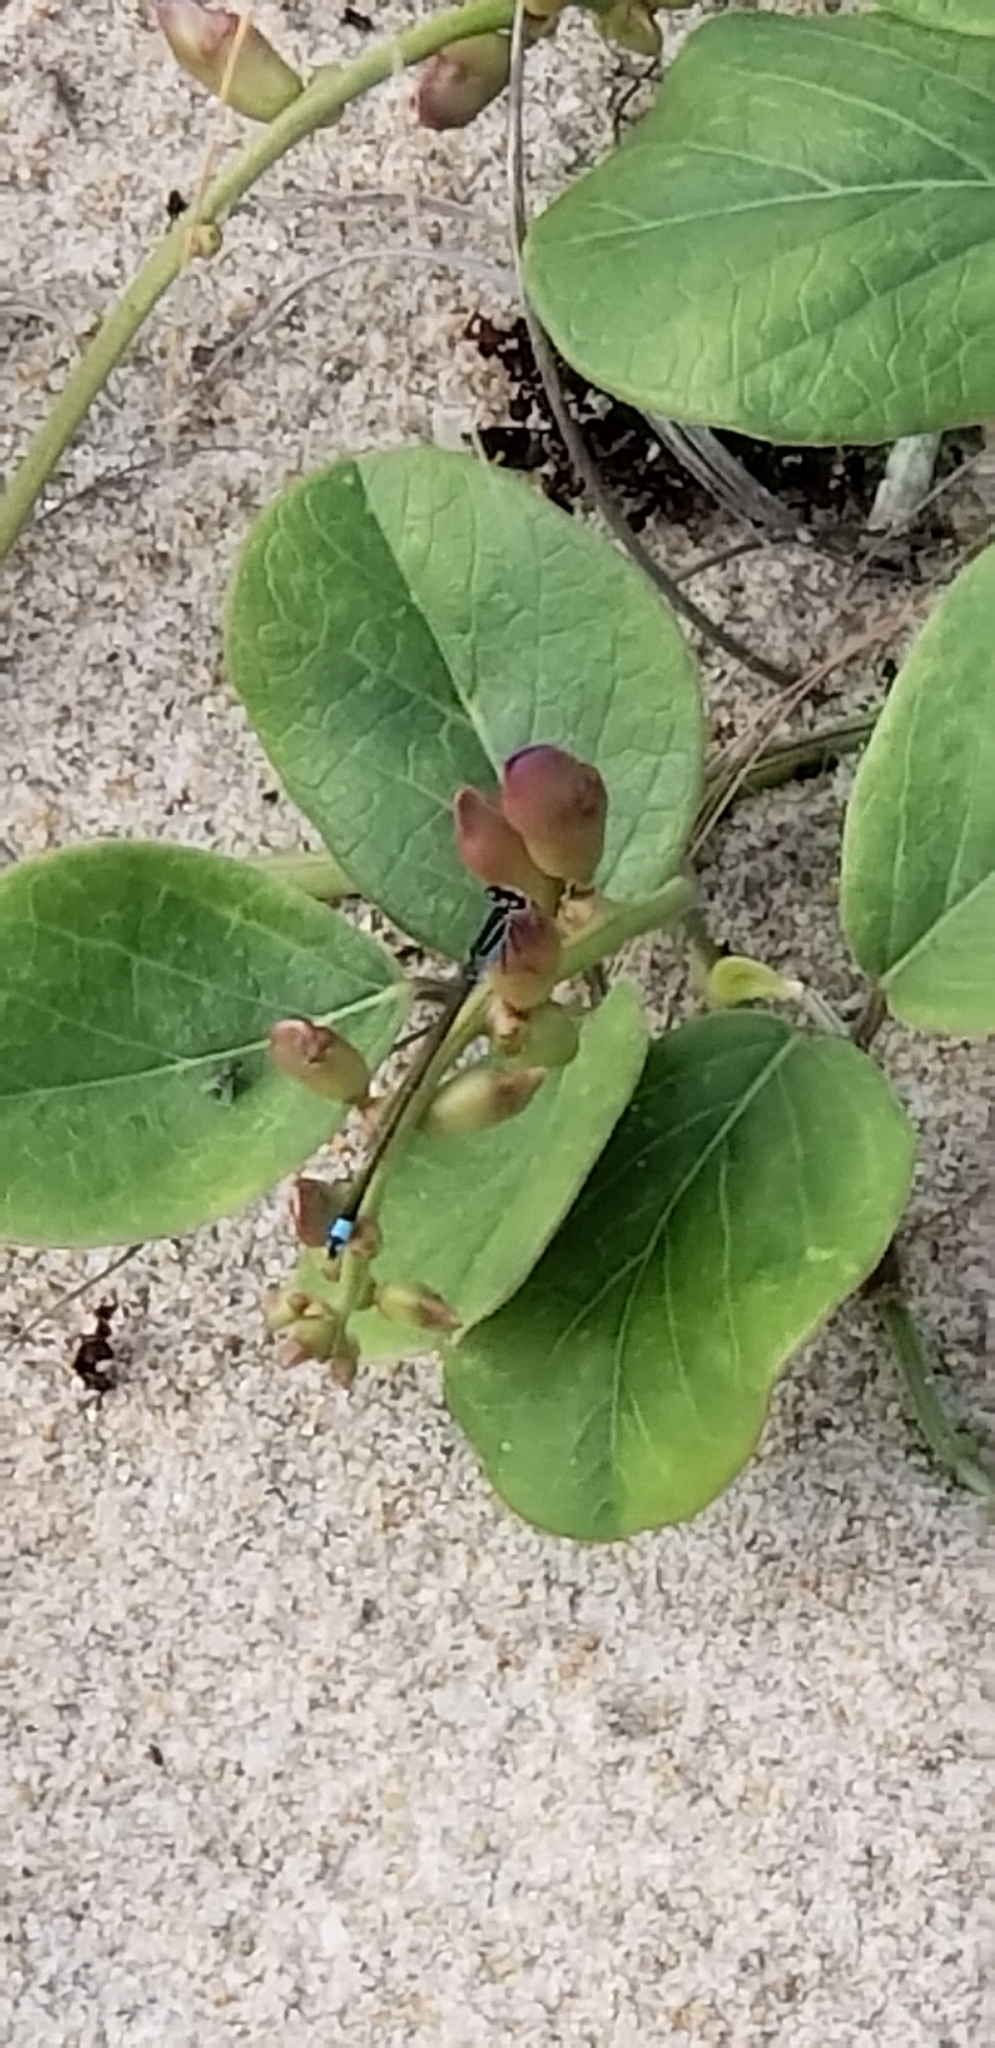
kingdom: Animalia
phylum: Arthropoda
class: Insecta
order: Odonata
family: Coenagrionidae
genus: Ischnura
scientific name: Ischnura ramburii
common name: Rambur's forktail
